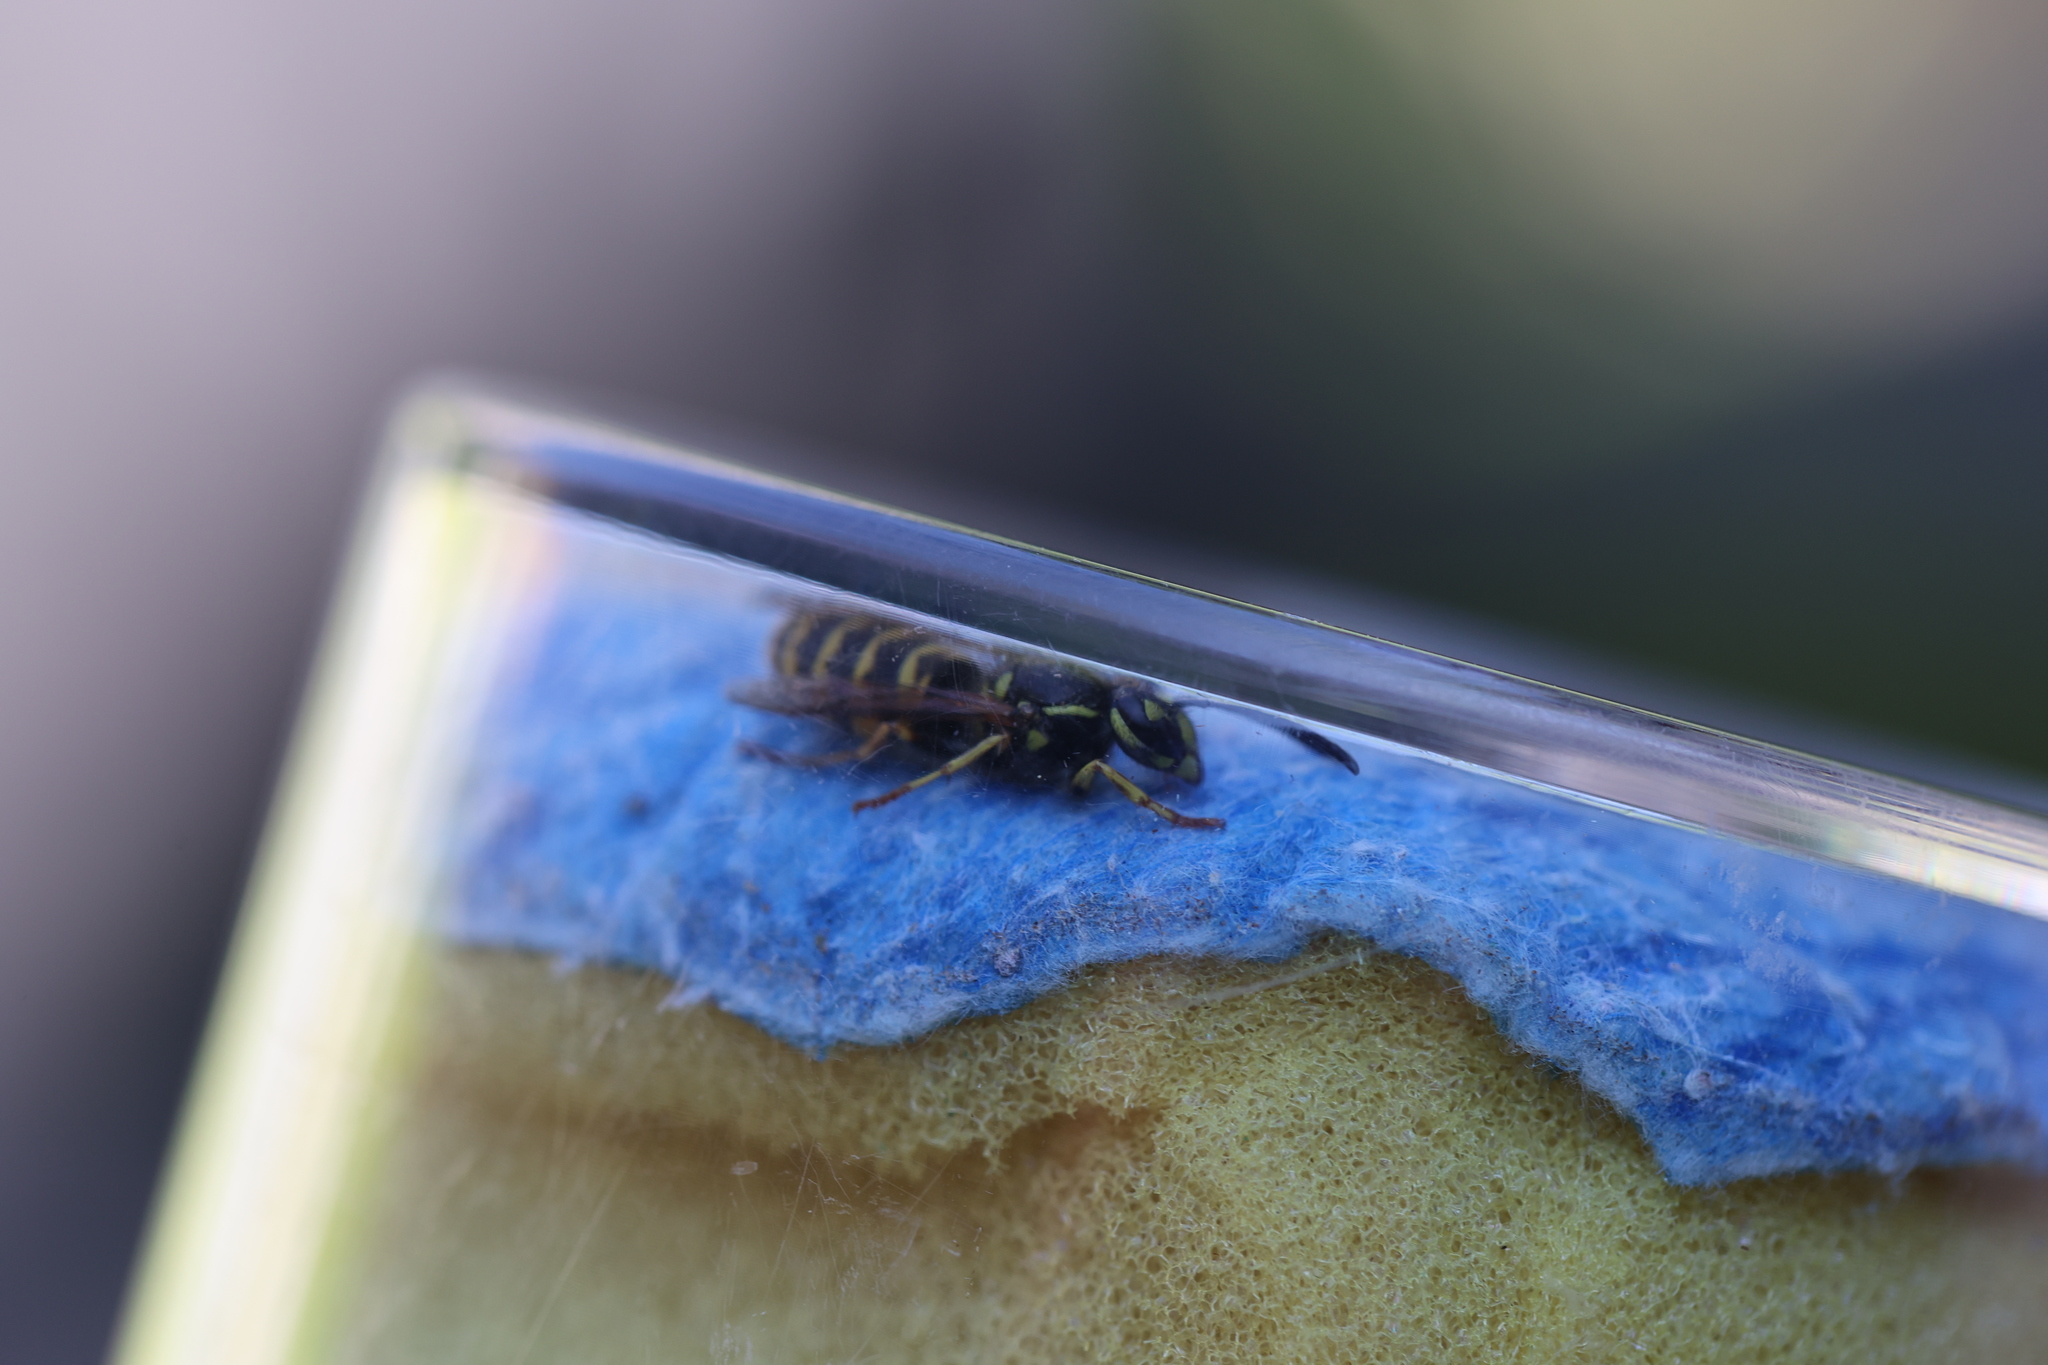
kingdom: Animalia
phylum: Arthropoda
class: Insecta
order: Hymenoptera
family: Vespidae
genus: Vespula
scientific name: Vespula vulgaris
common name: Common wasp
